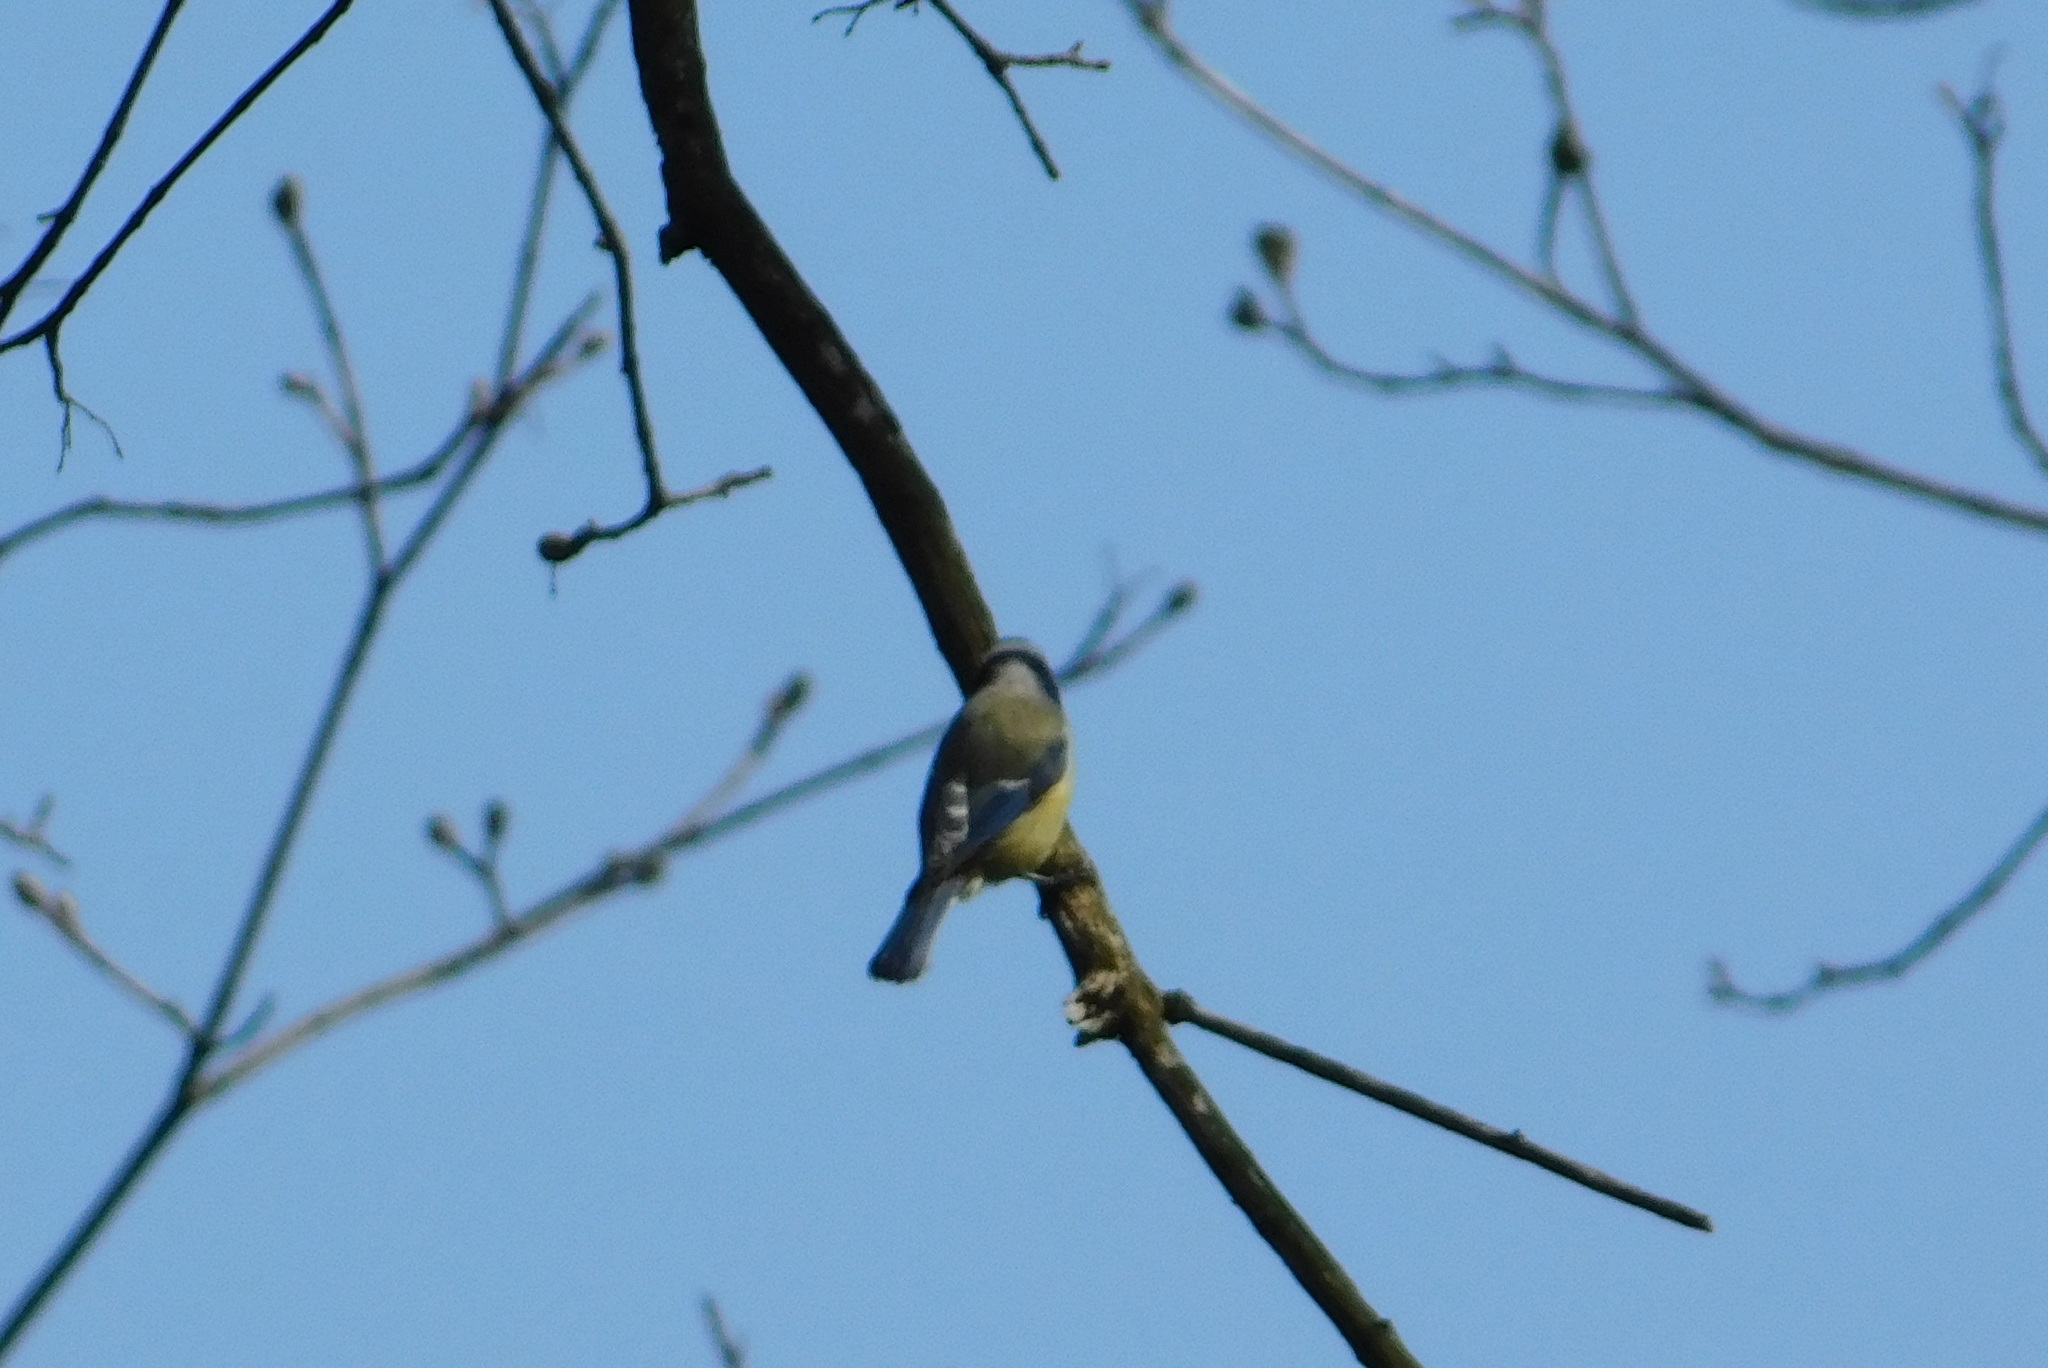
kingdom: Animalia
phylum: Chordata
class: Aves
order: Passeriformes
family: Paridae
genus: Cyanistes
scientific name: Cyanistes caeruleus
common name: Eurasian blue tit
